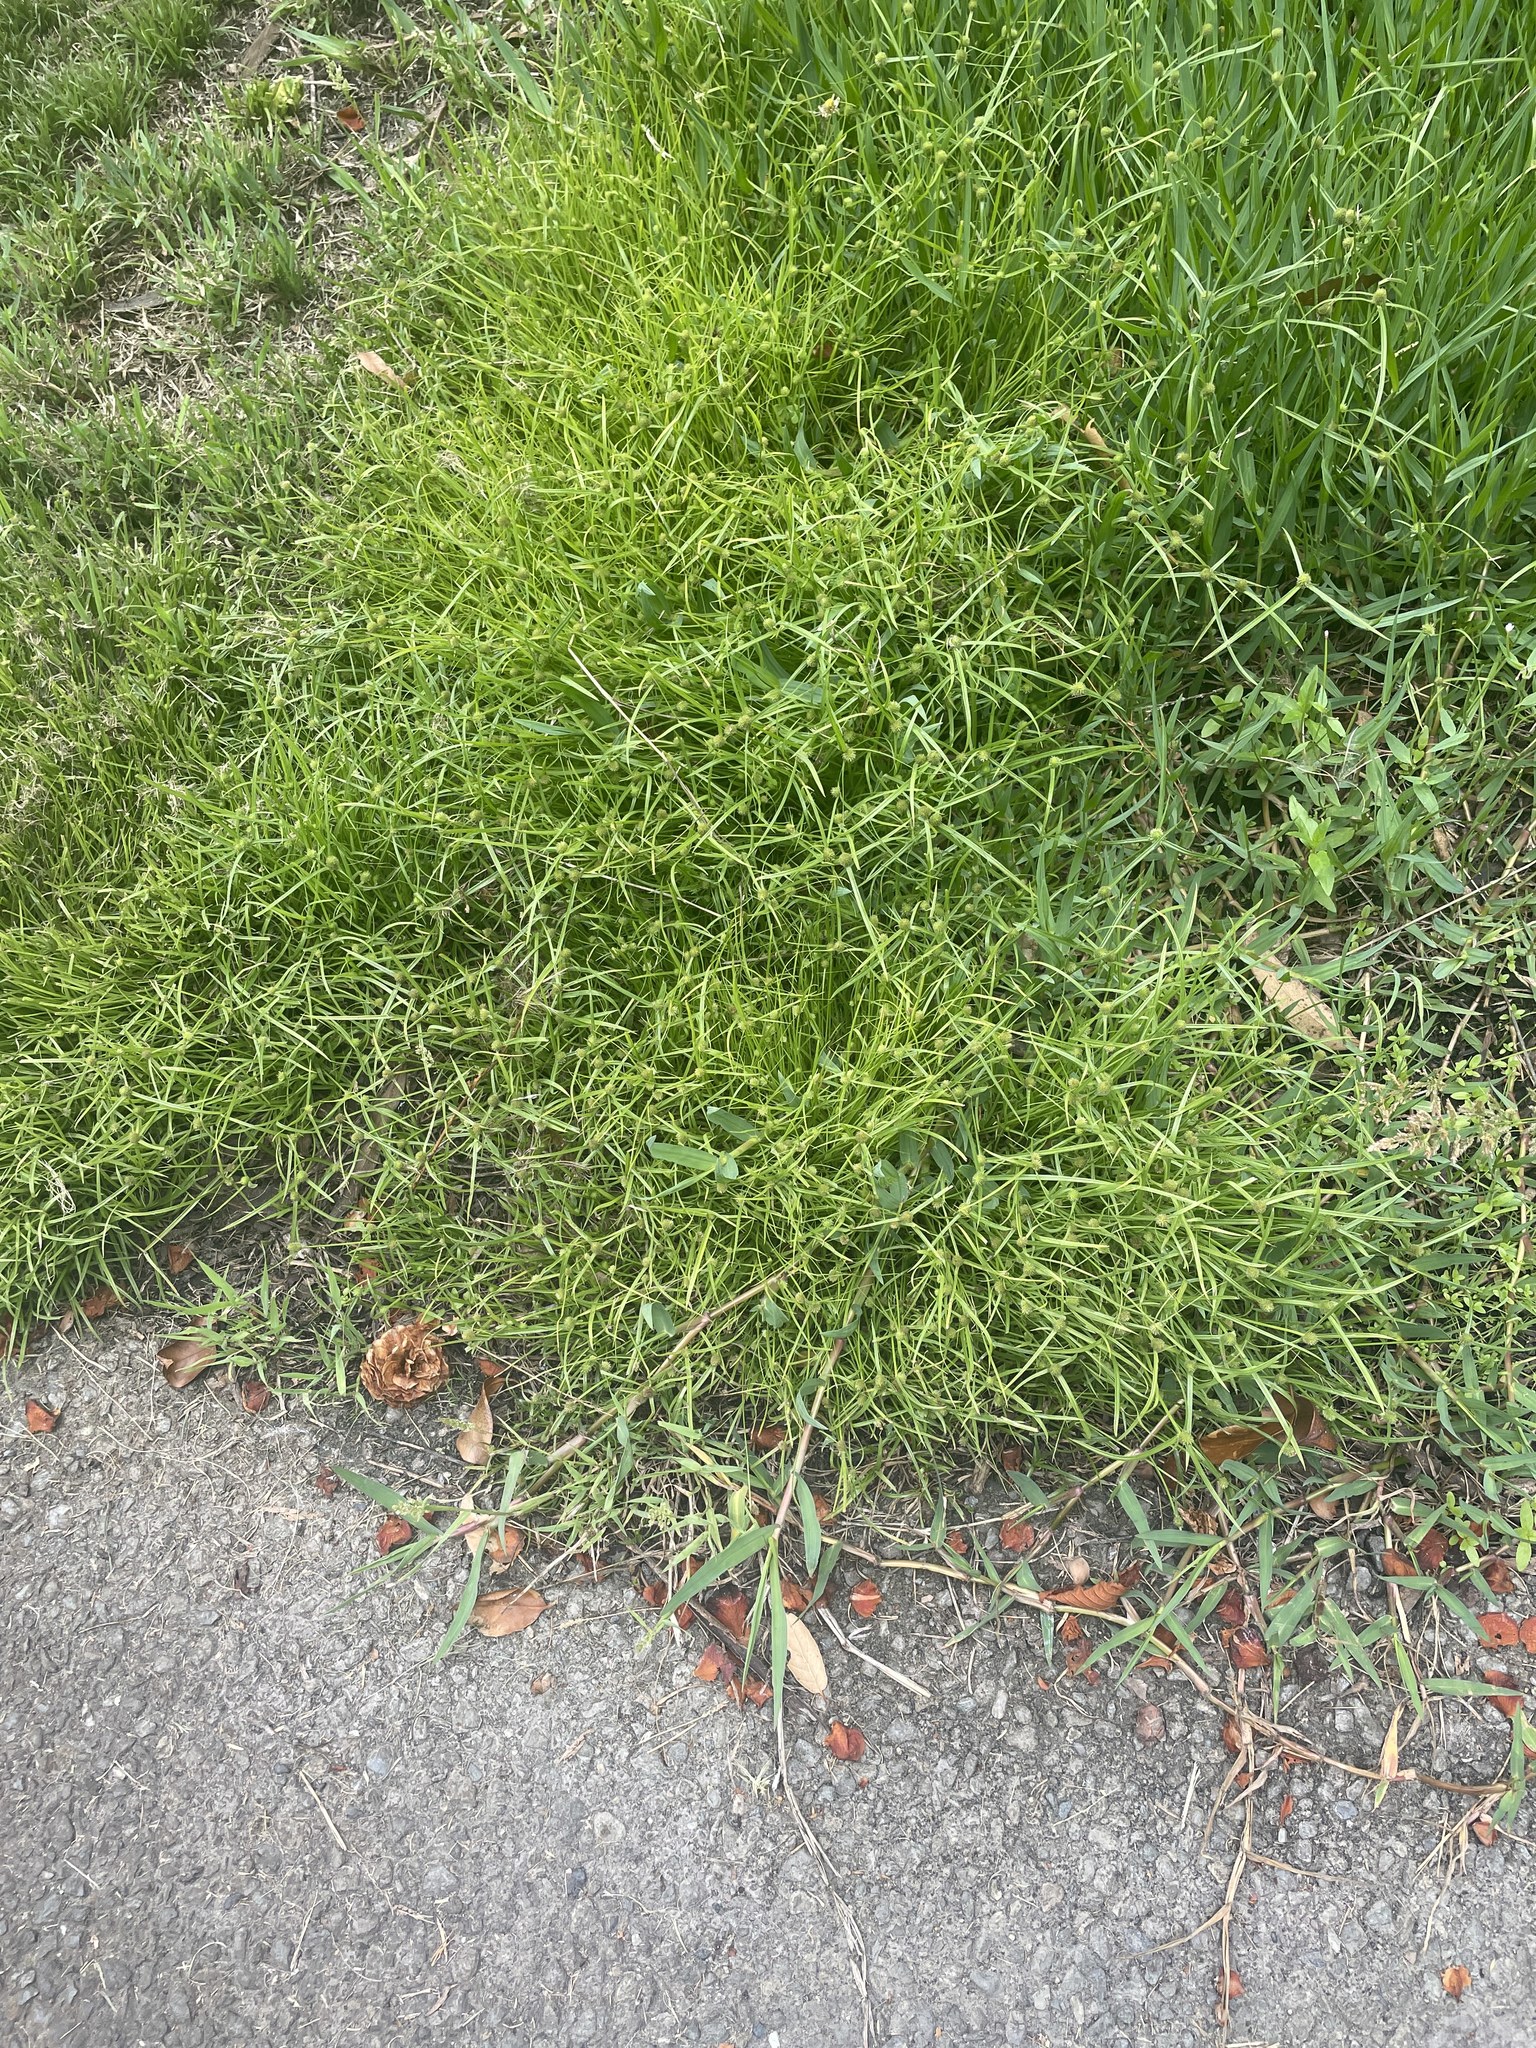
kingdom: Plantae
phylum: Tracheophyta
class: Liliopsida
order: Poales
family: Cyperaceae
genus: Cyperus
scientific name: Cyperus brevifolius
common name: Globe kyllinga
